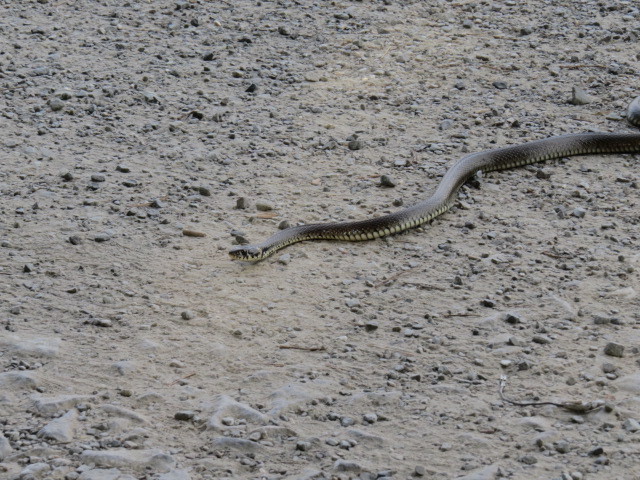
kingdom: Animalia
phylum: Chordata
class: Squamata
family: Colubridae
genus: Natrix
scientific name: Natrix natrix
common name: Grass snake
